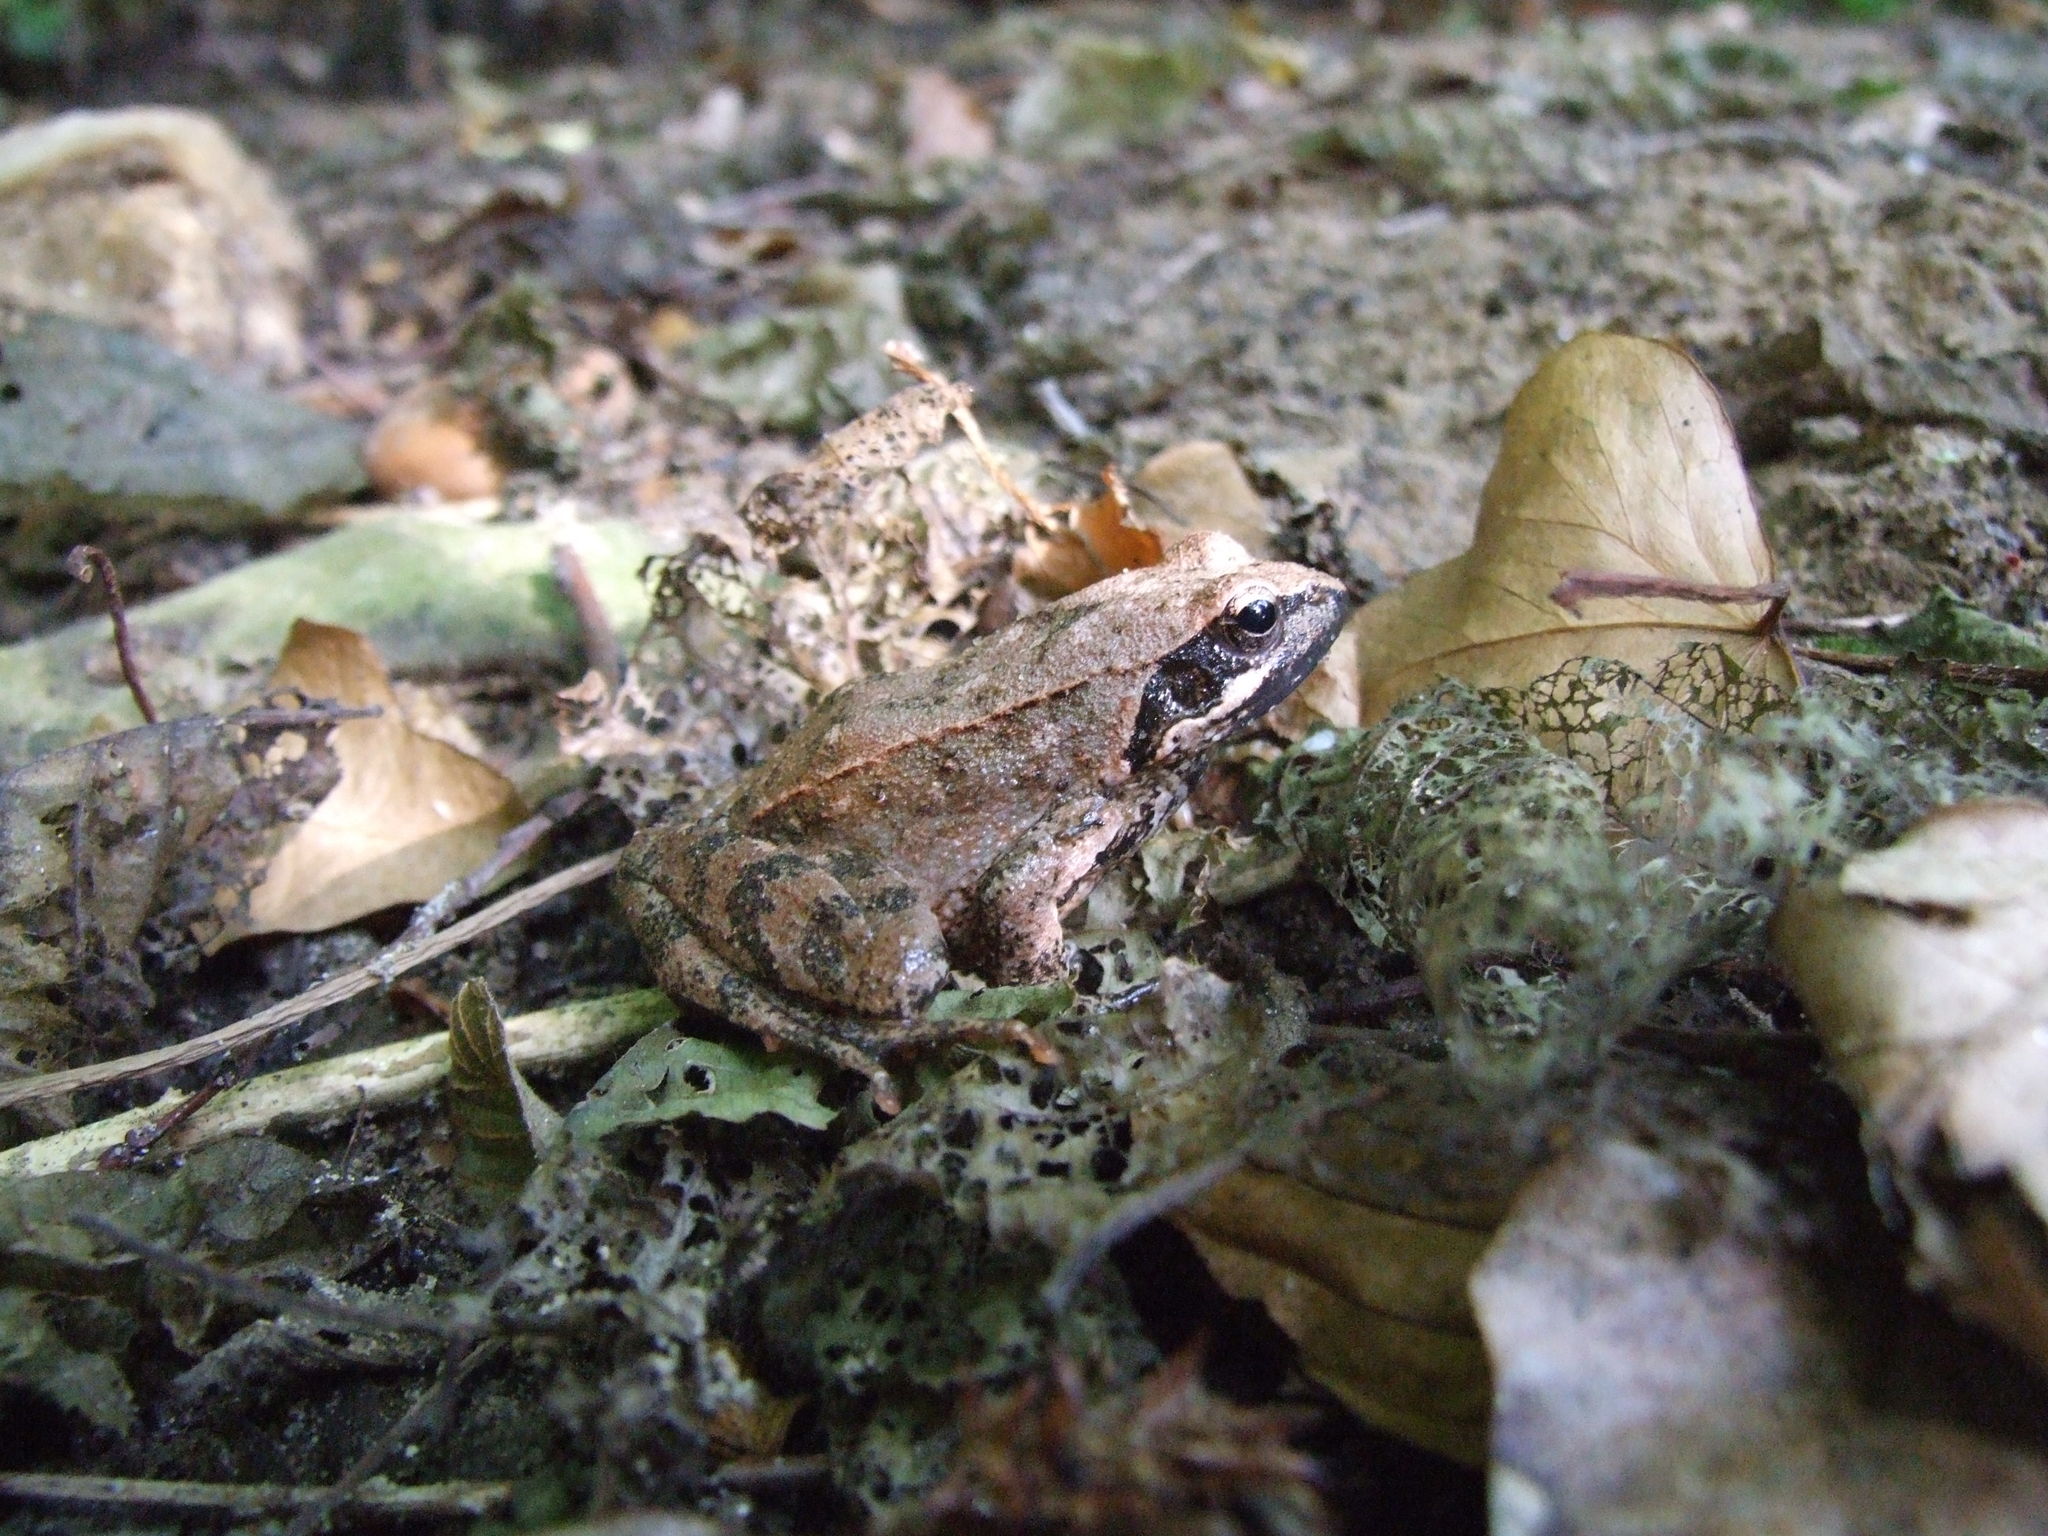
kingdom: Animalia
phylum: Chordata
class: Amphibia
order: Anura
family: Ranidae
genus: Rana
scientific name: Rana italica
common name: Italian stream frog
